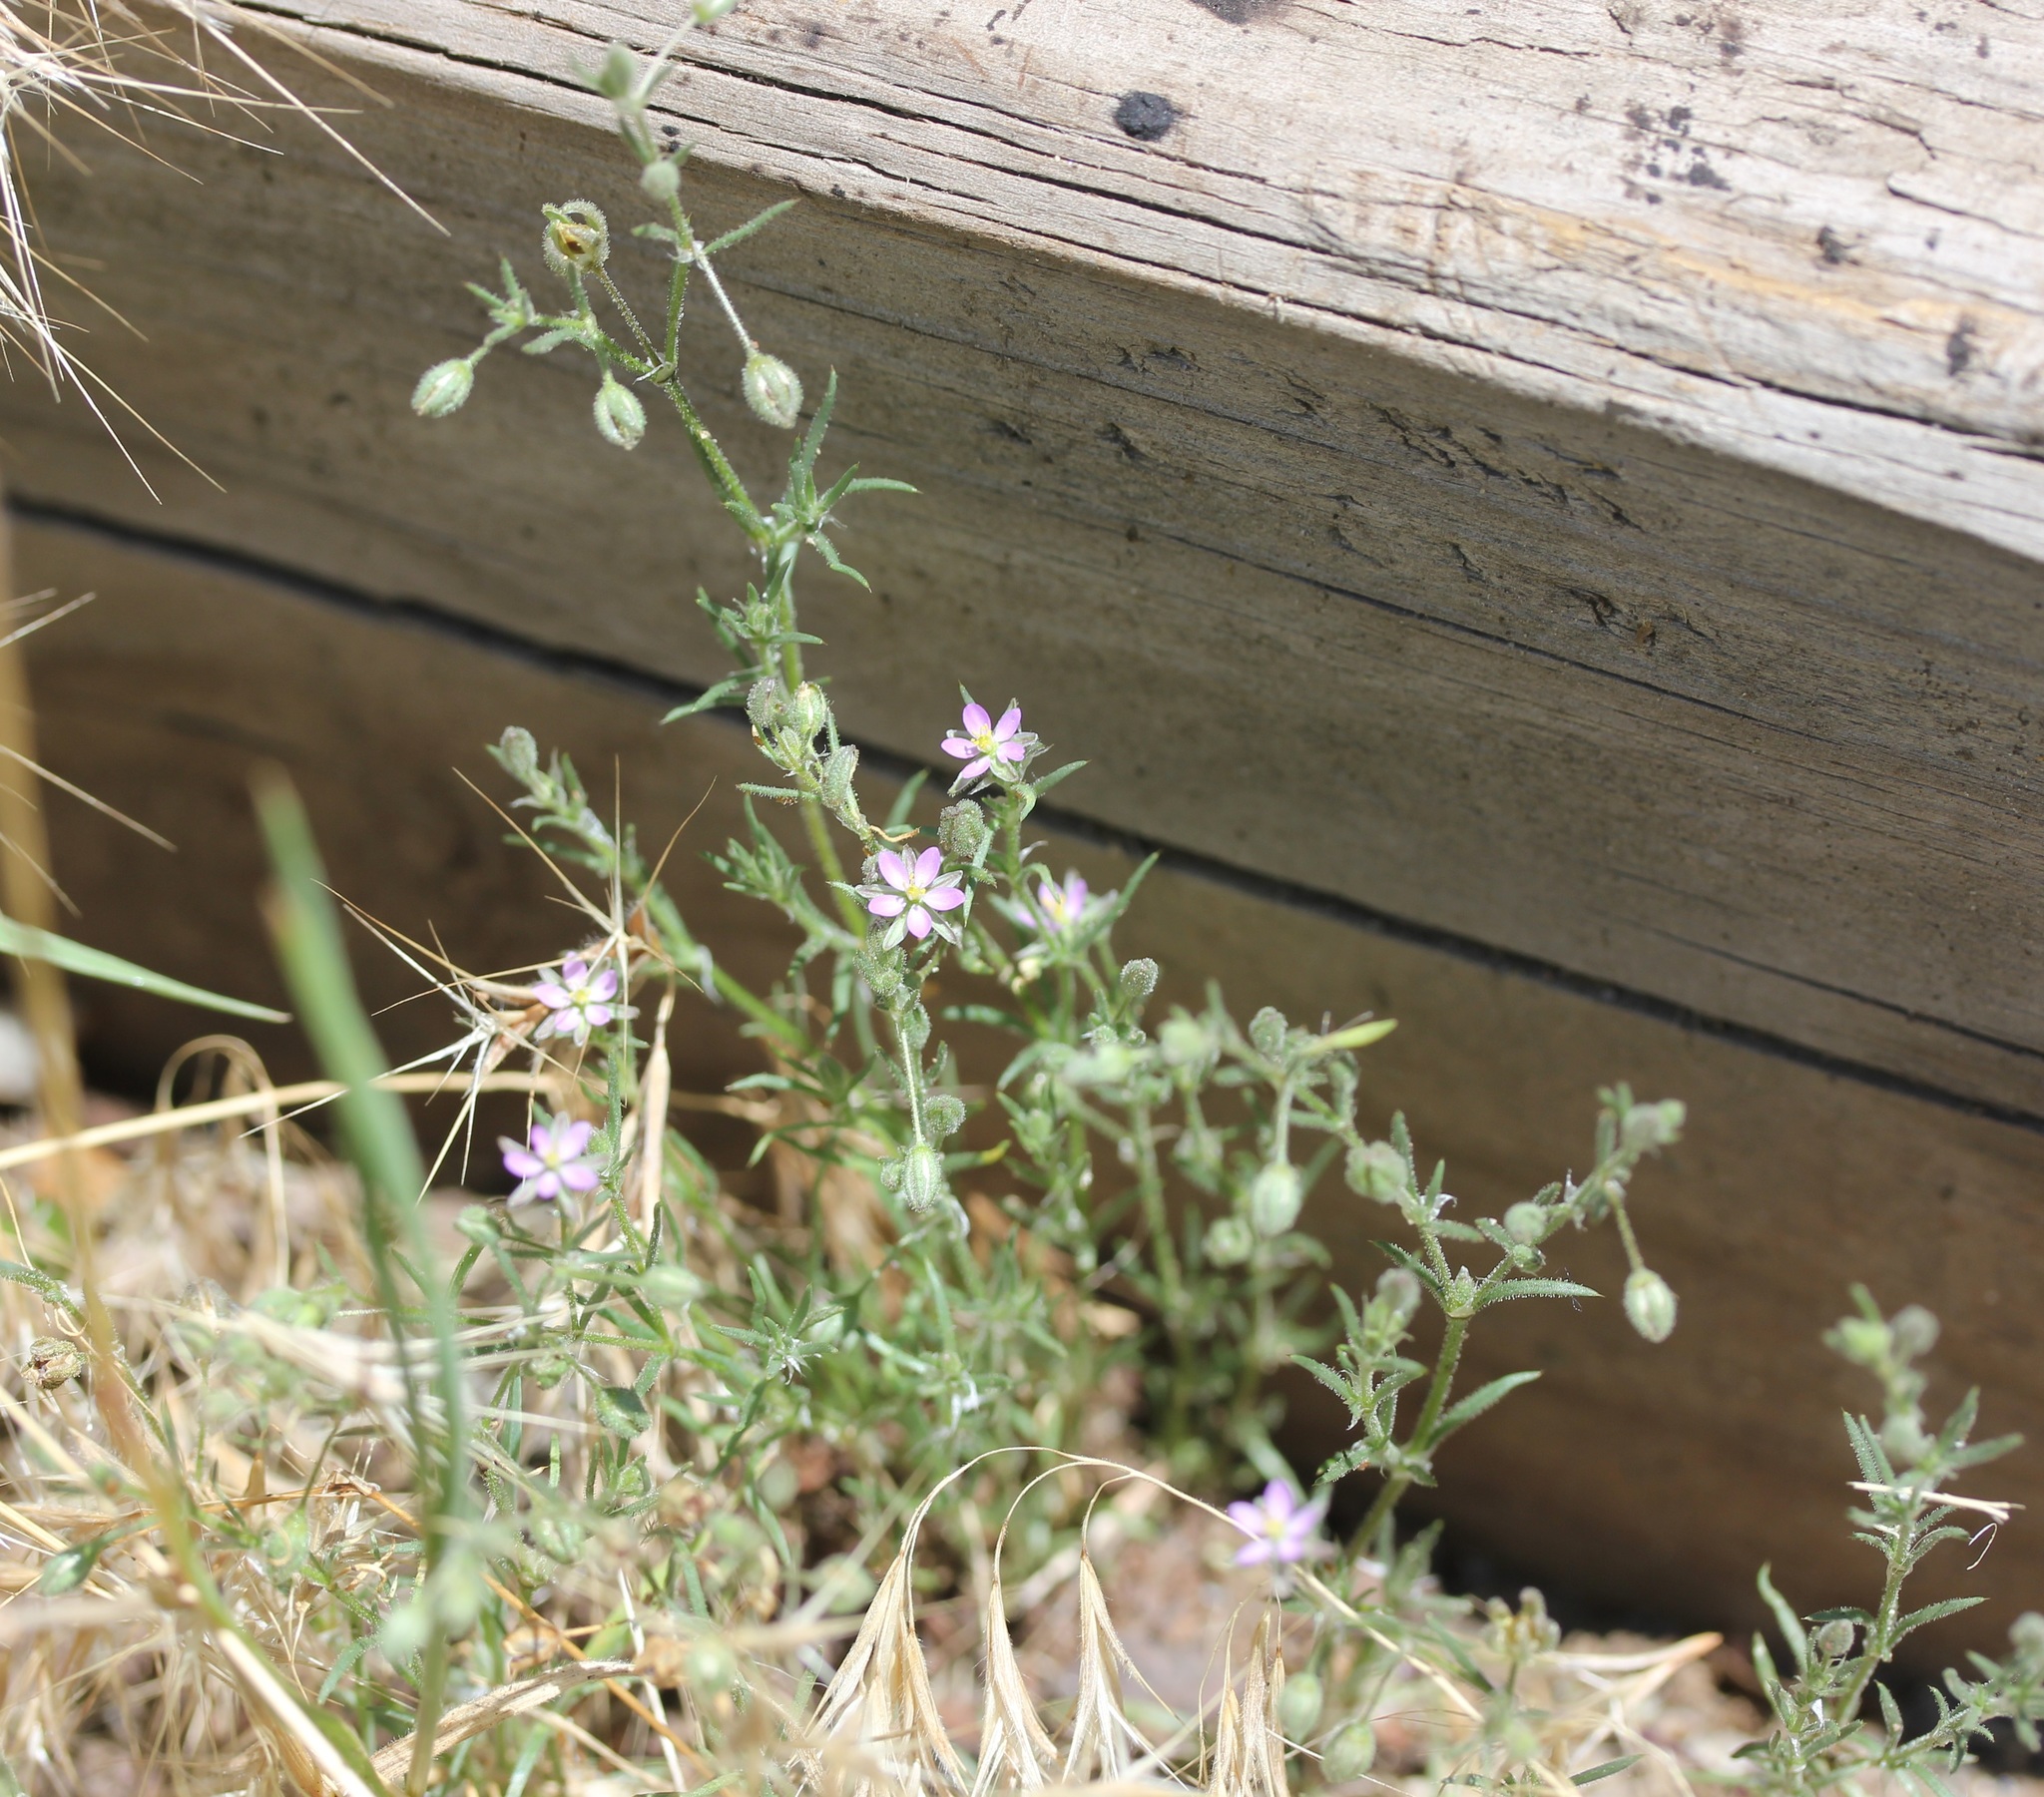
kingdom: Plantae
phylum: Tracheophyta
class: Magnoliopsida
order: Caryophyllales
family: Caryophyllaceae
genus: Spergularia
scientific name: Spergularia rubra
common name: Red sand-spurrey
